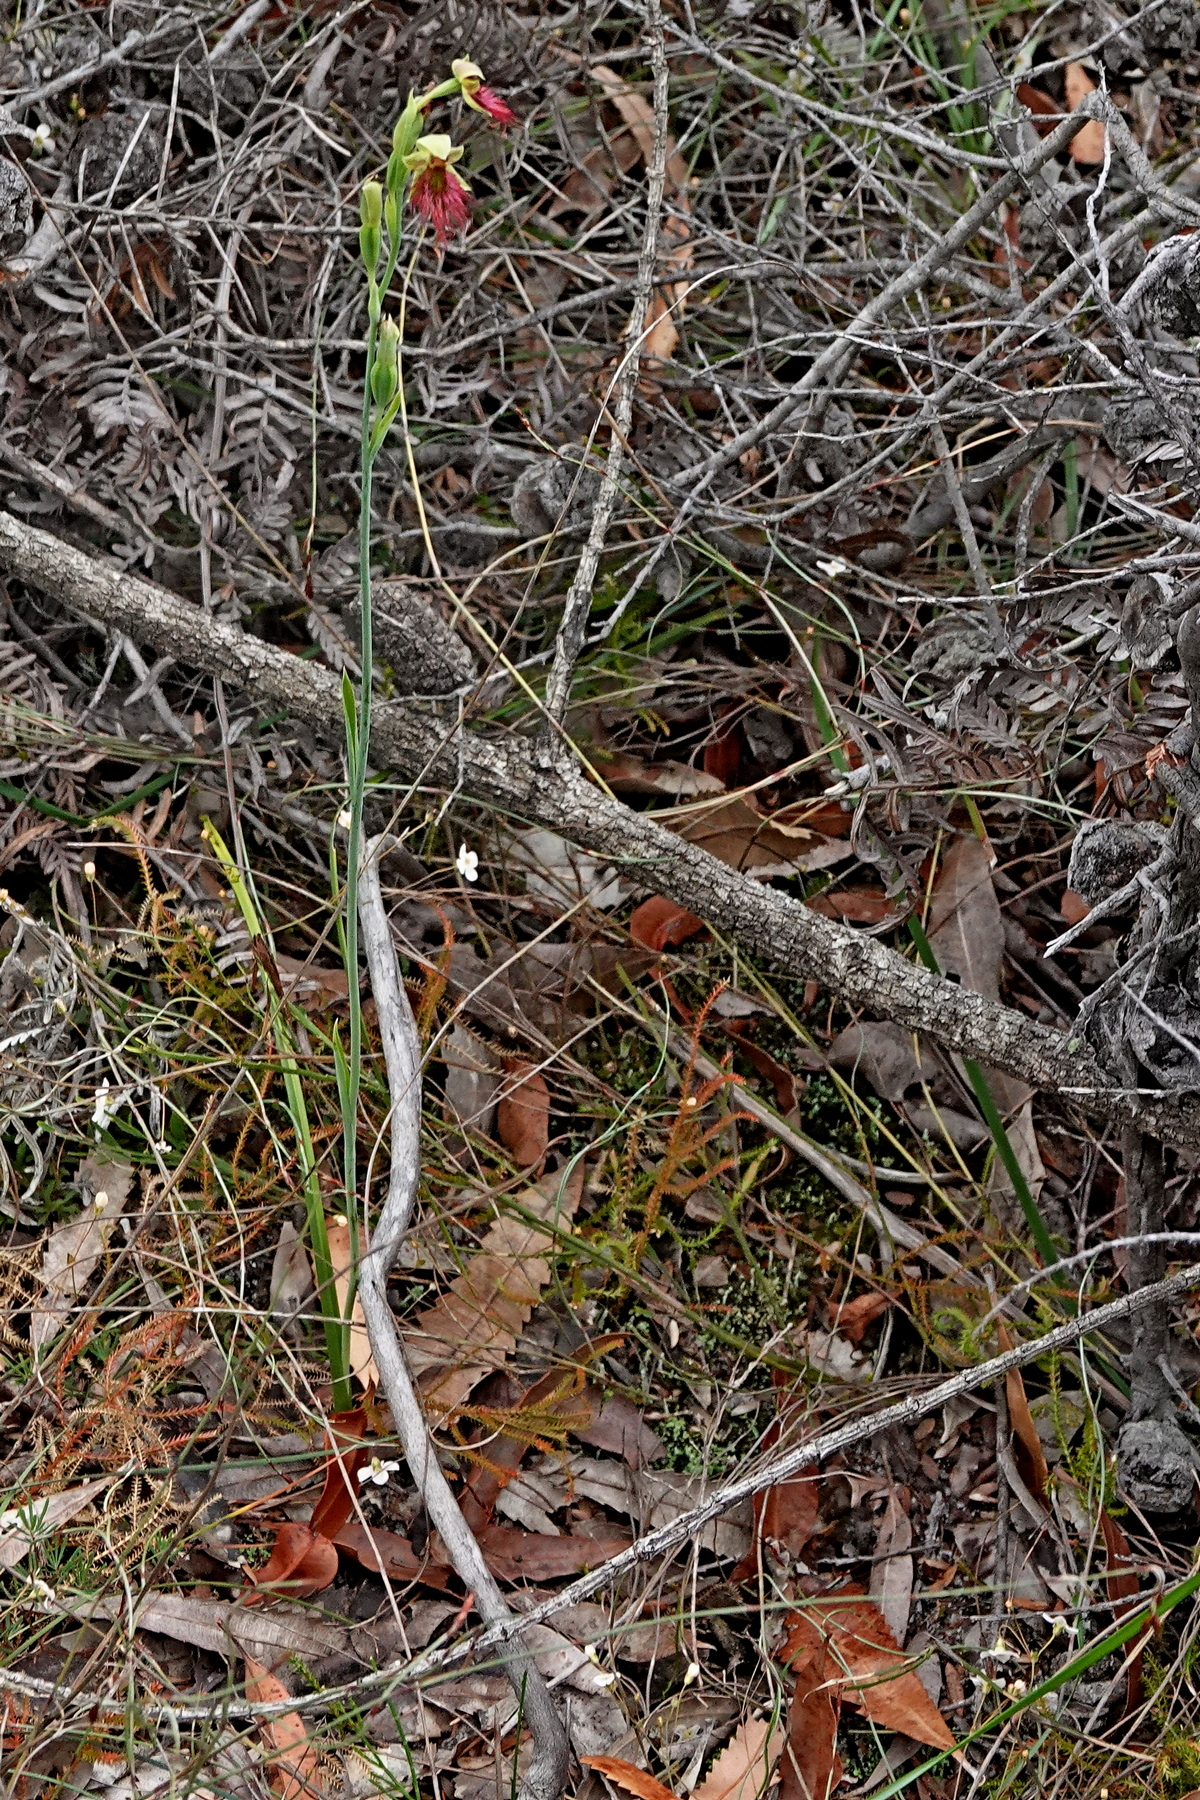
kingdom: Plantae
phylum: Tracheophyta
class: Liliopsida
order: Asparagales
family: Orchidaceae
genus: Calochilus
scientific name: Calochilus paludosus
